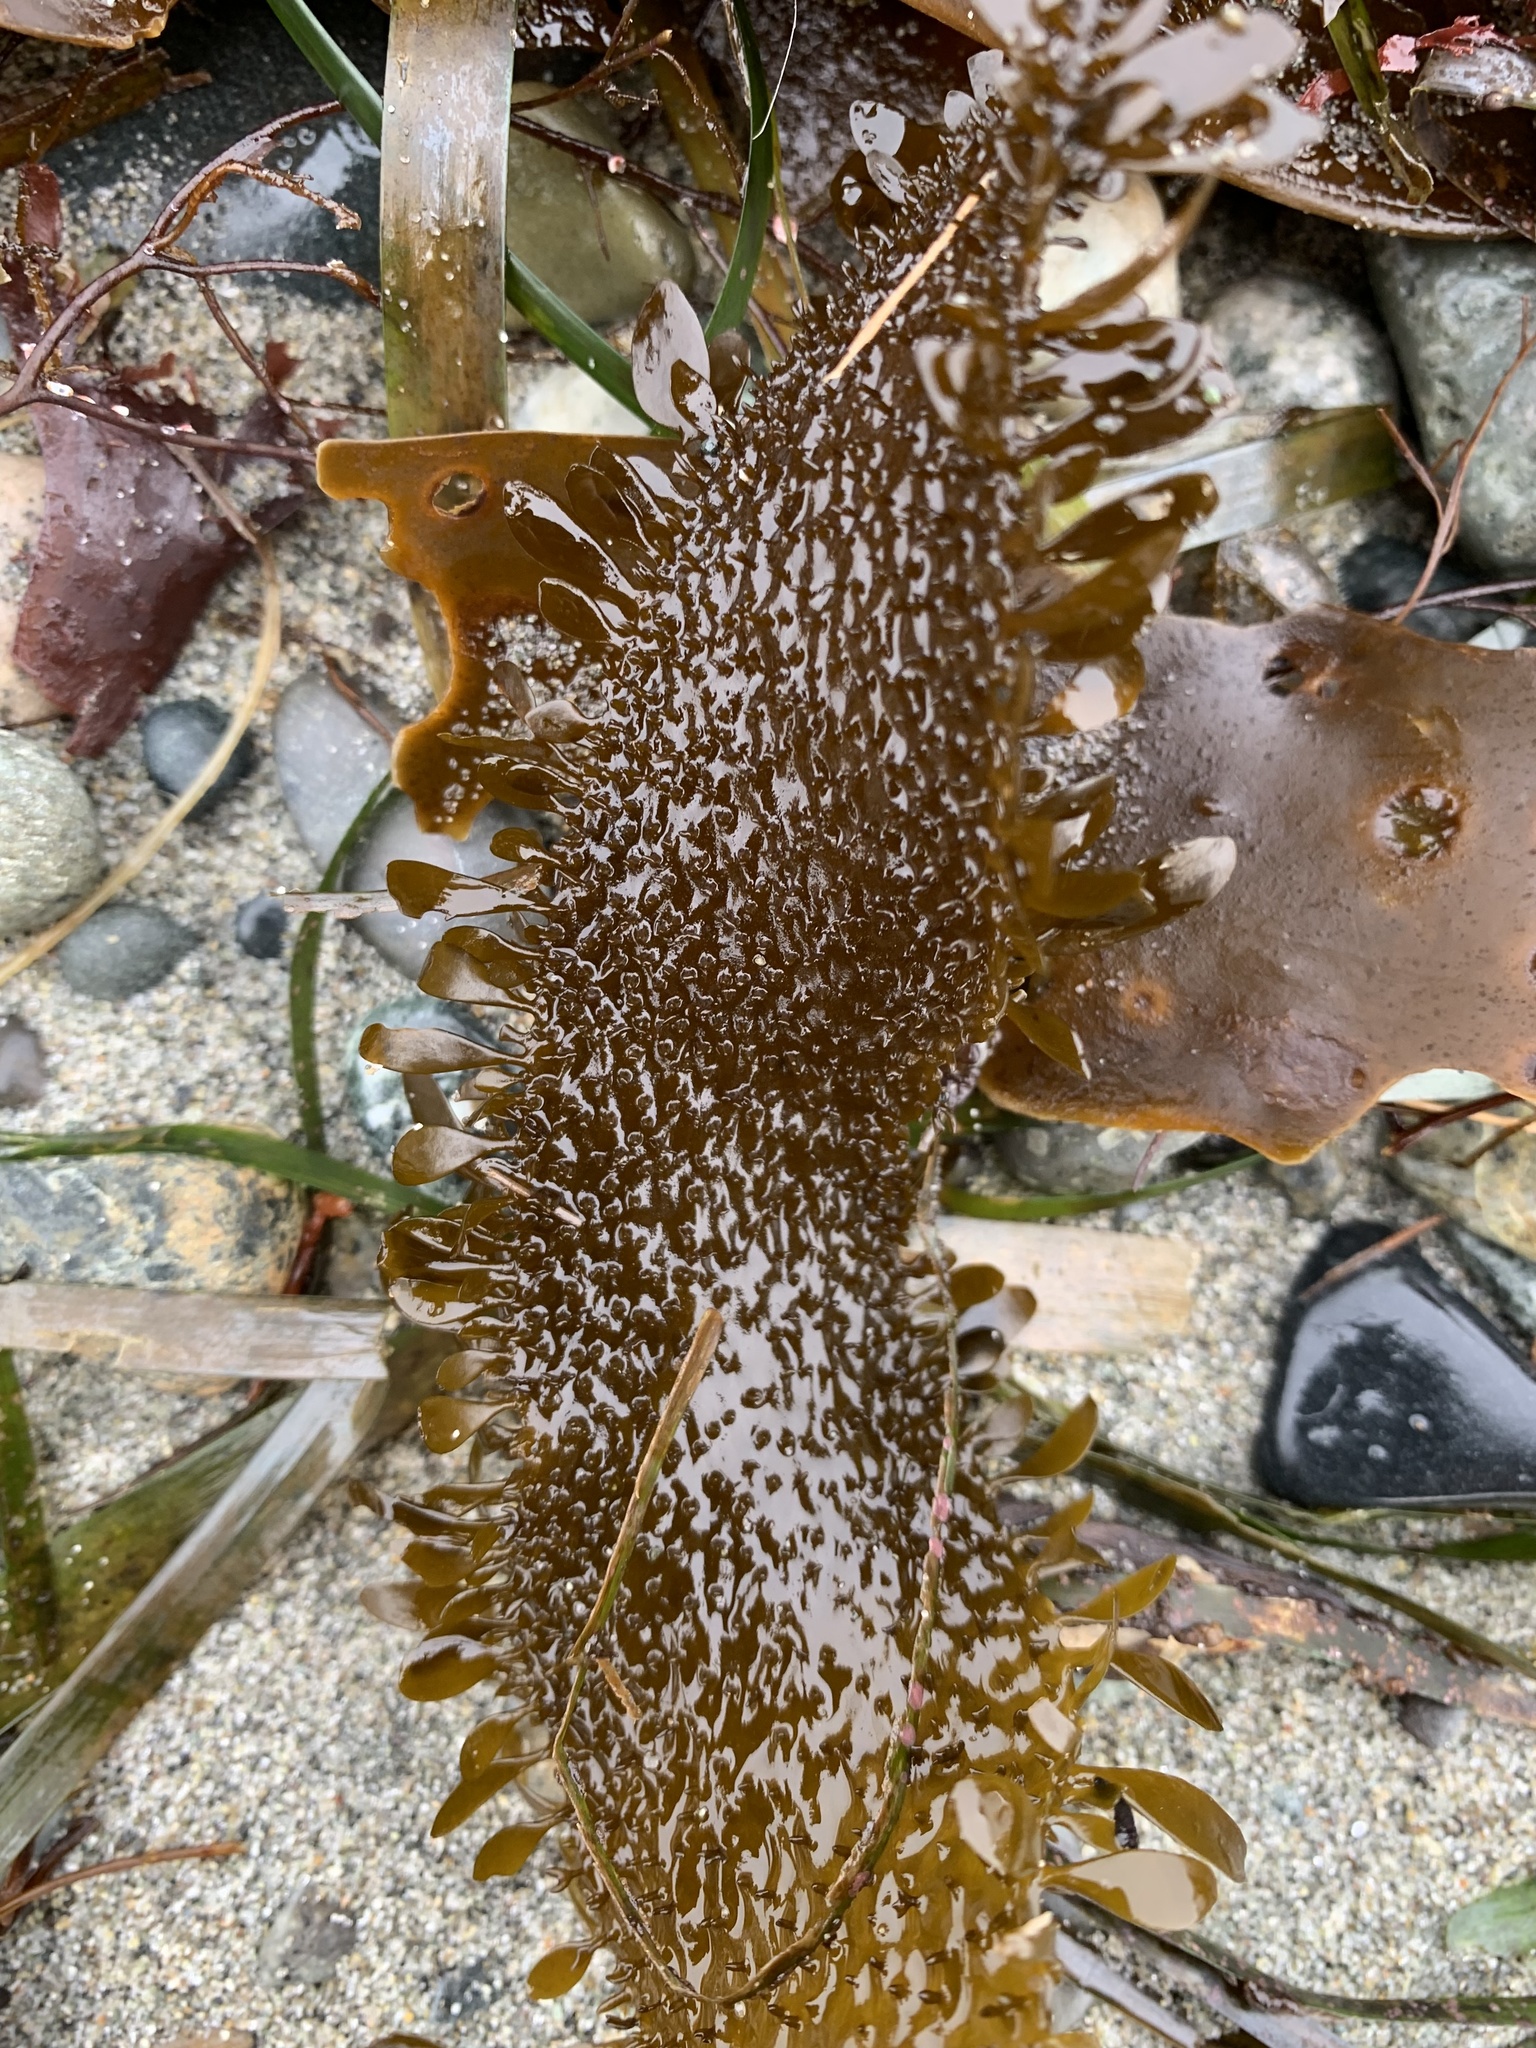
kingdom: Chromista
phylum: Ochrophyta
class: Phaeophyceae
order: Laminariales
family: Lessoniaceae
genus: Egregia
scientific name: Egregia menziesii
